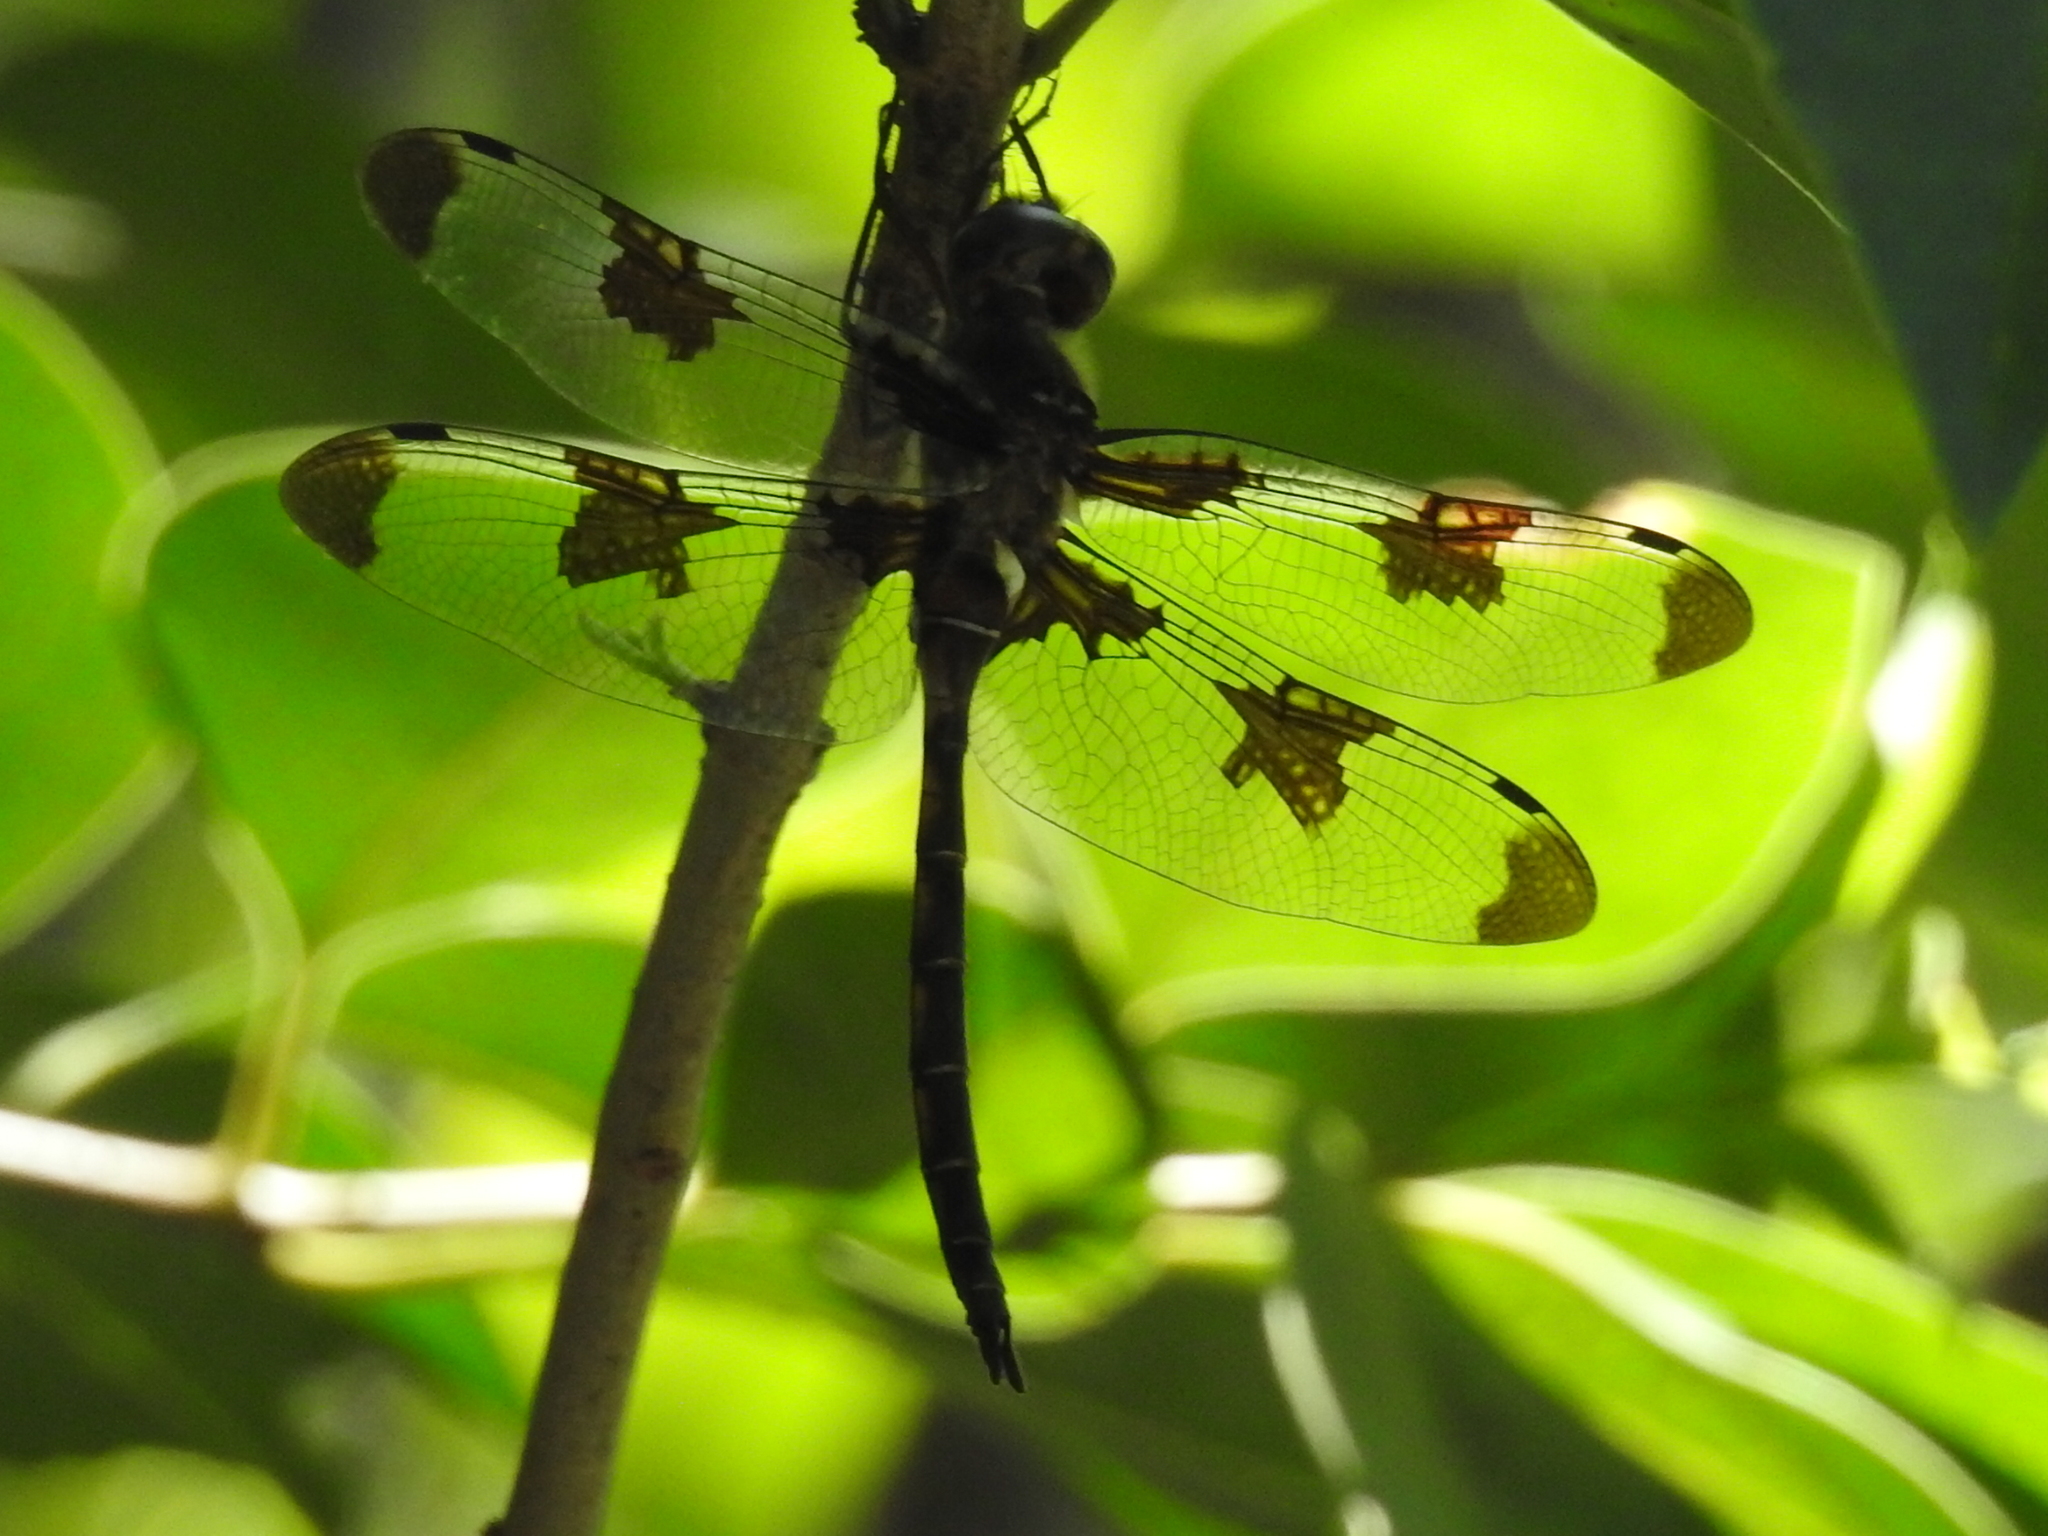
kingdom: Animalia
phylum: Arthropoda
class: Insecta
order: Odonata
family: Corduliidae
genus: Epitheca
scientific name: Epitheca princeps
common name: Prince baskettail
